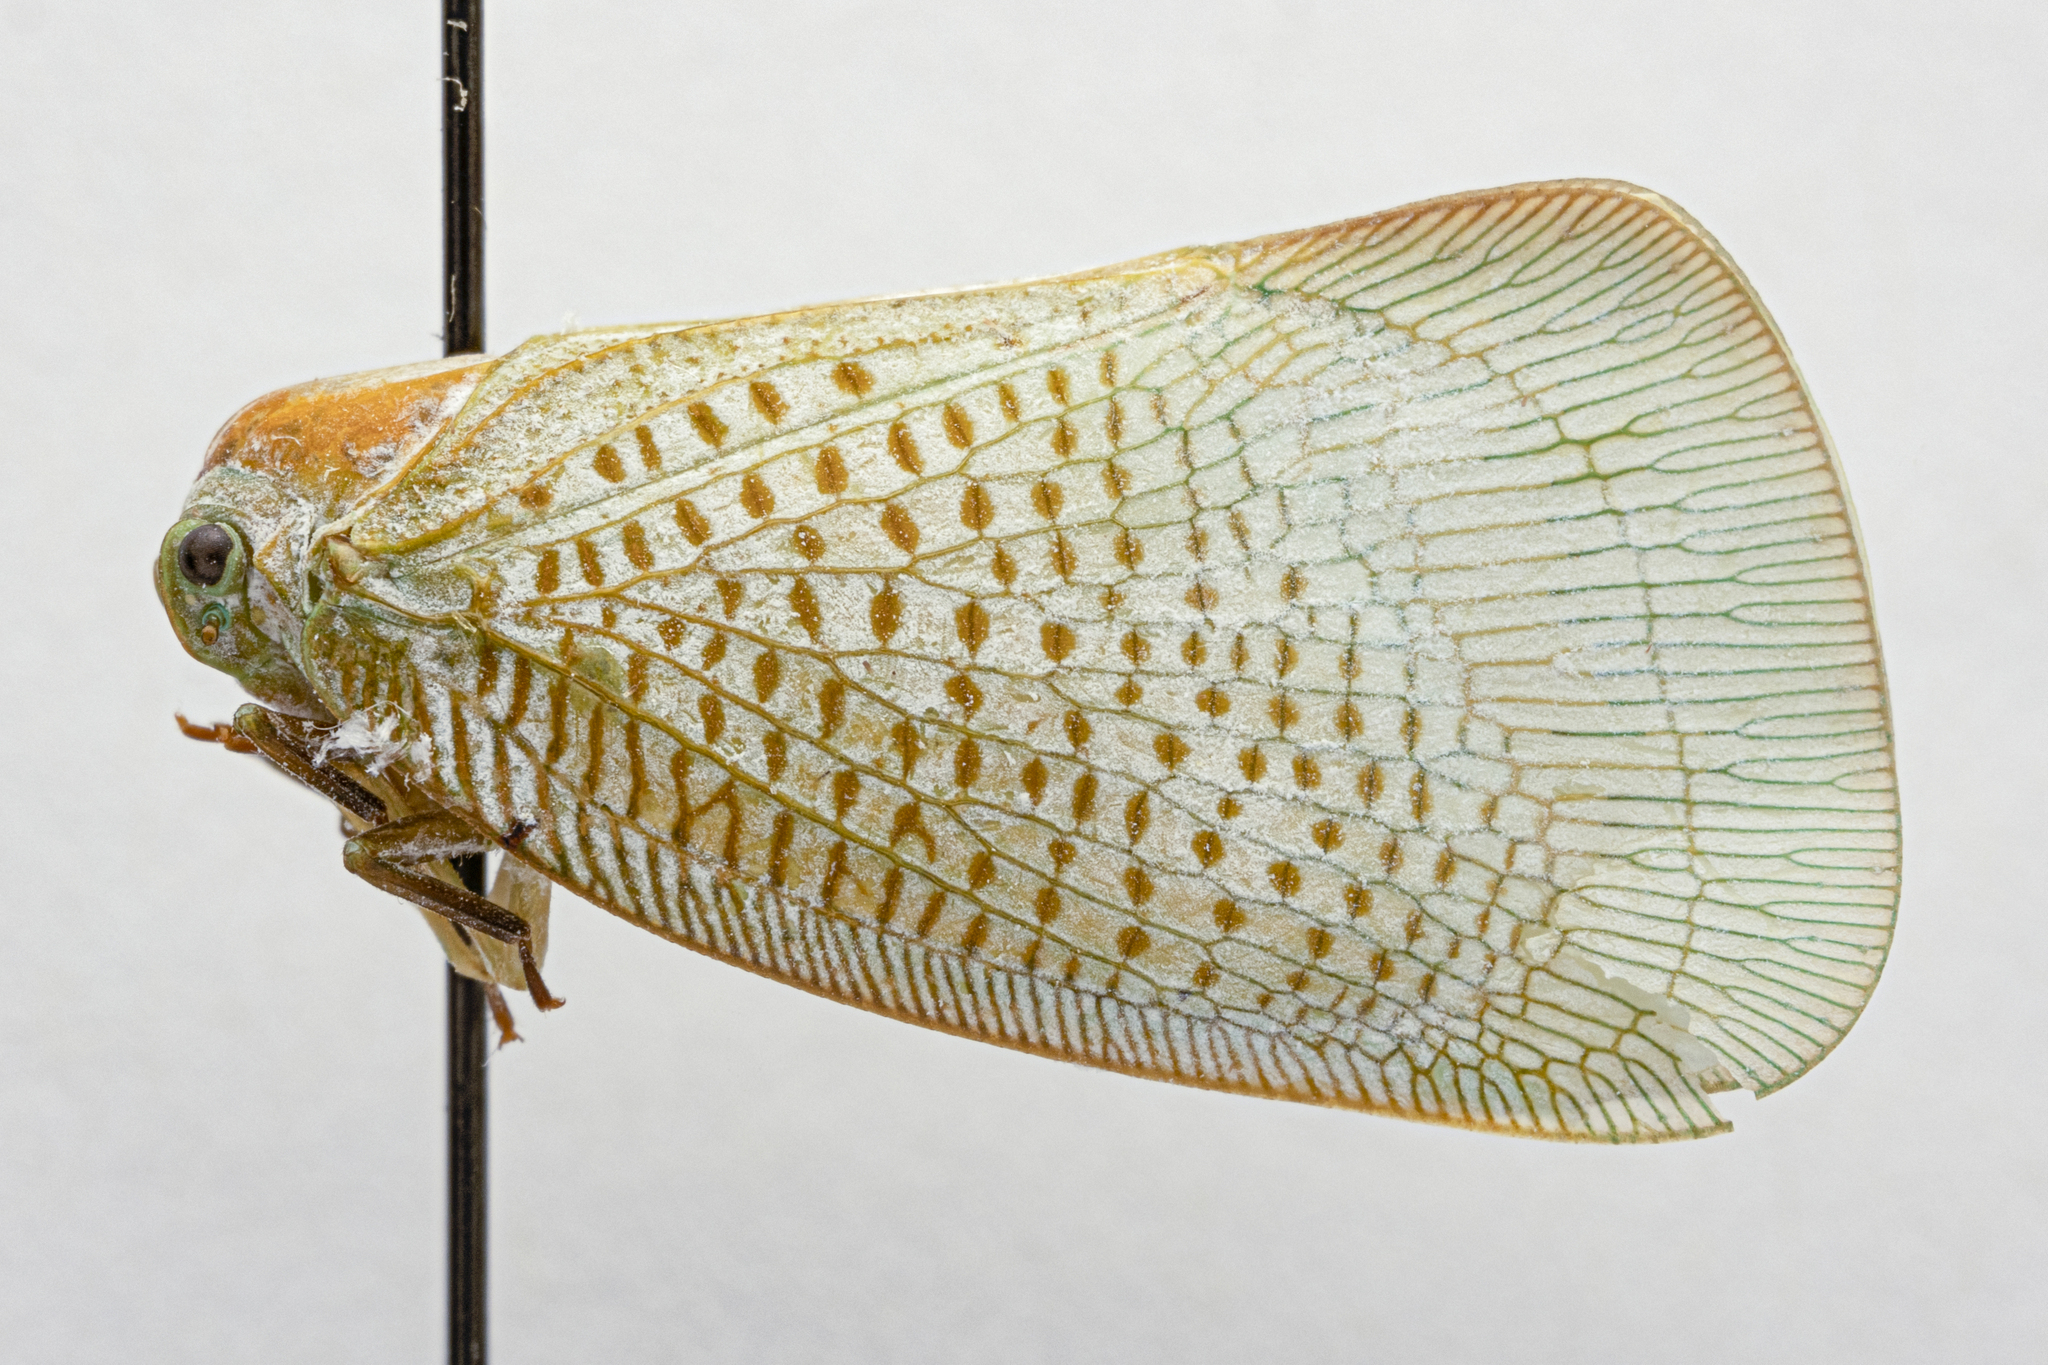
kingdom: Animalia
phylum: Arthropoda
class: Insecta
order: Hemiptera
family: Flatidae
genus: Adexia
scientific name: Adexia erminia
